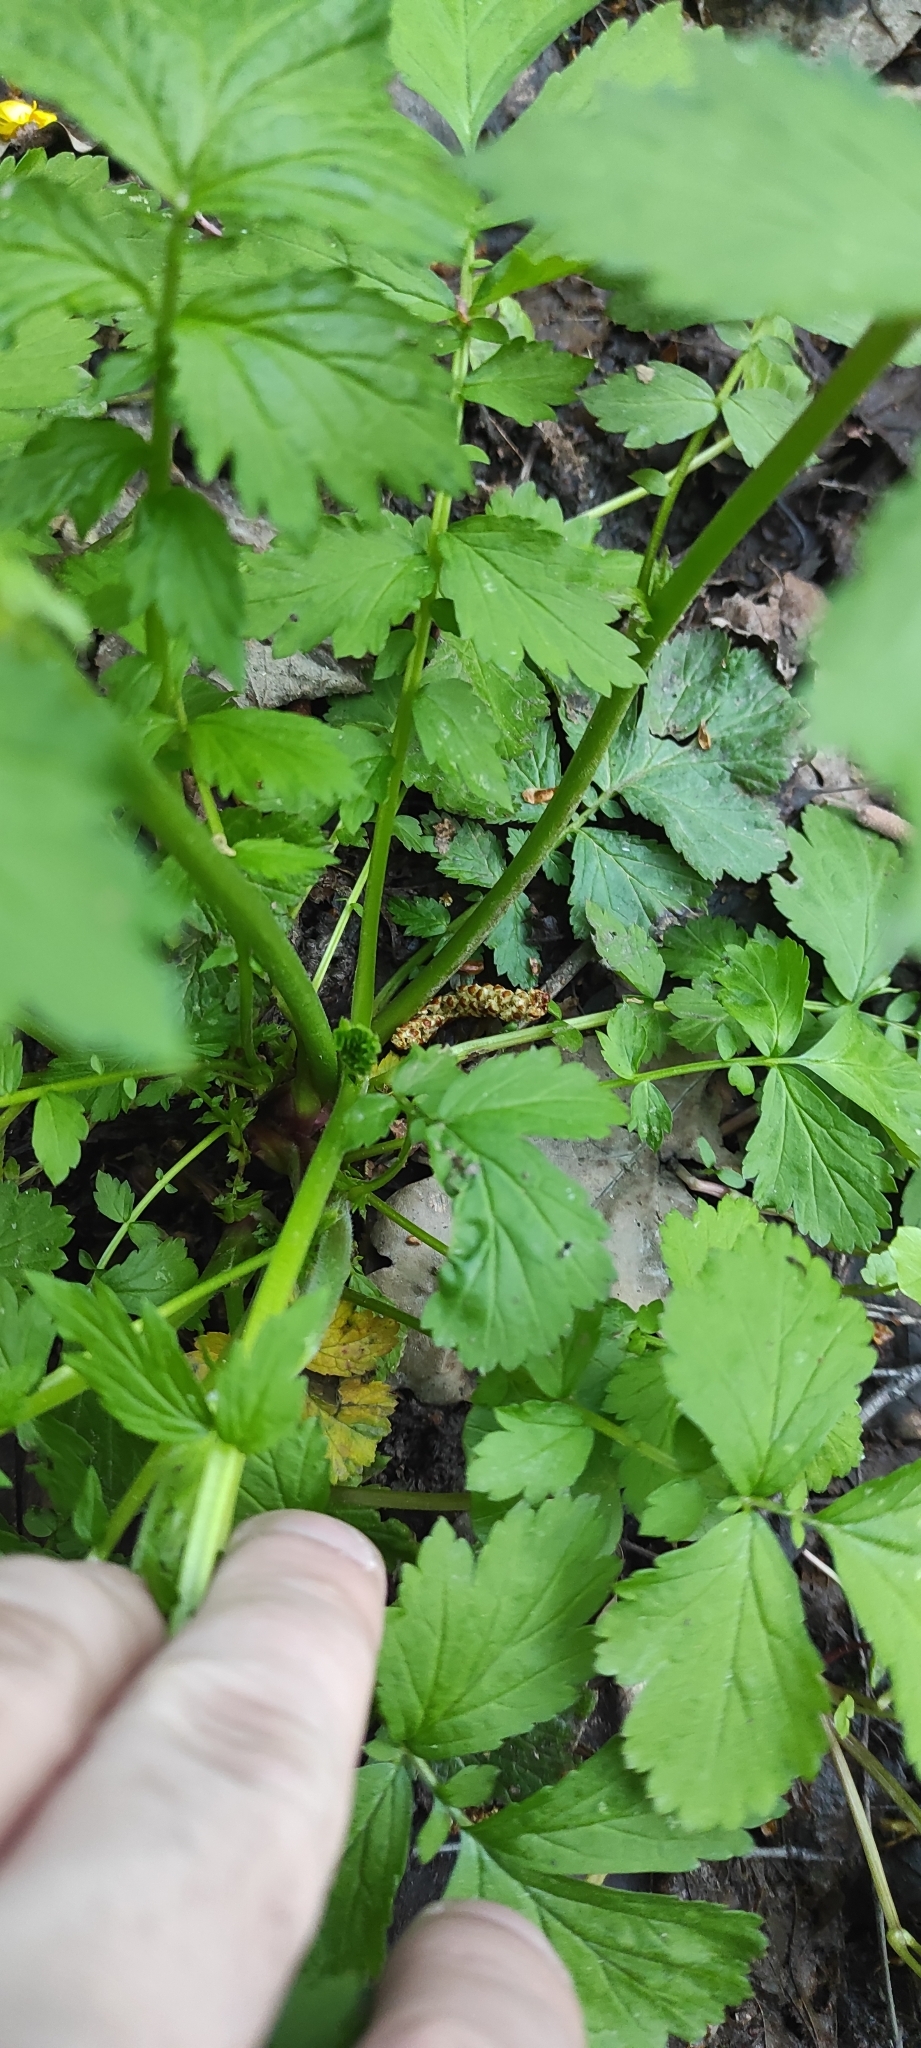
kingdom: Plantae
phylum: Tracheophyta
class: Magnoliopsida
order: Rosales
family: Rosaceae
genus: Geum
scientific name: Geum rivale
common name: Water avens
